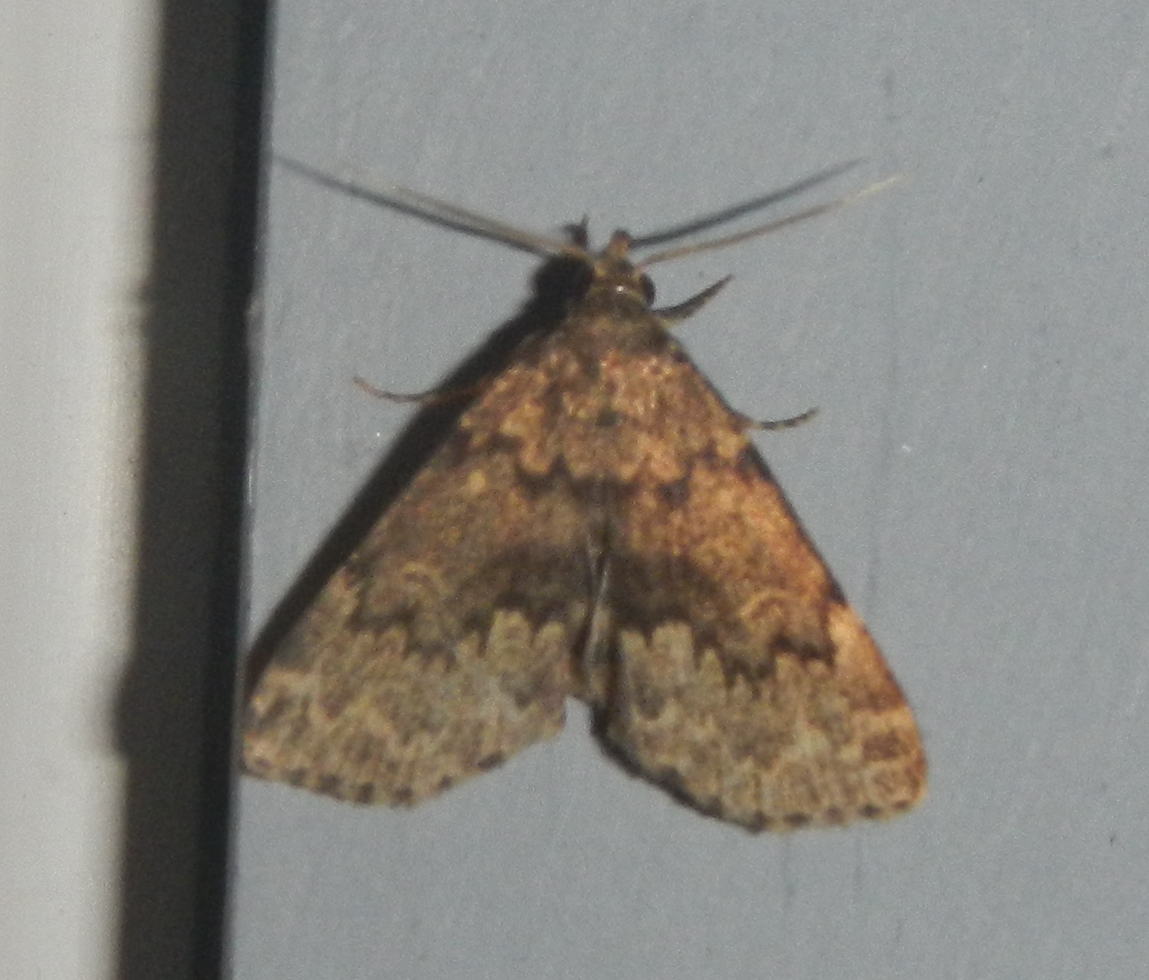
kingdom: Animalia
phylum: Arthropoda
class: Insecta
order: Lepidoptera
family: Erebidae
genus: Idia
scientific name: Idia denticulalis
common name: Toothed idia moth
